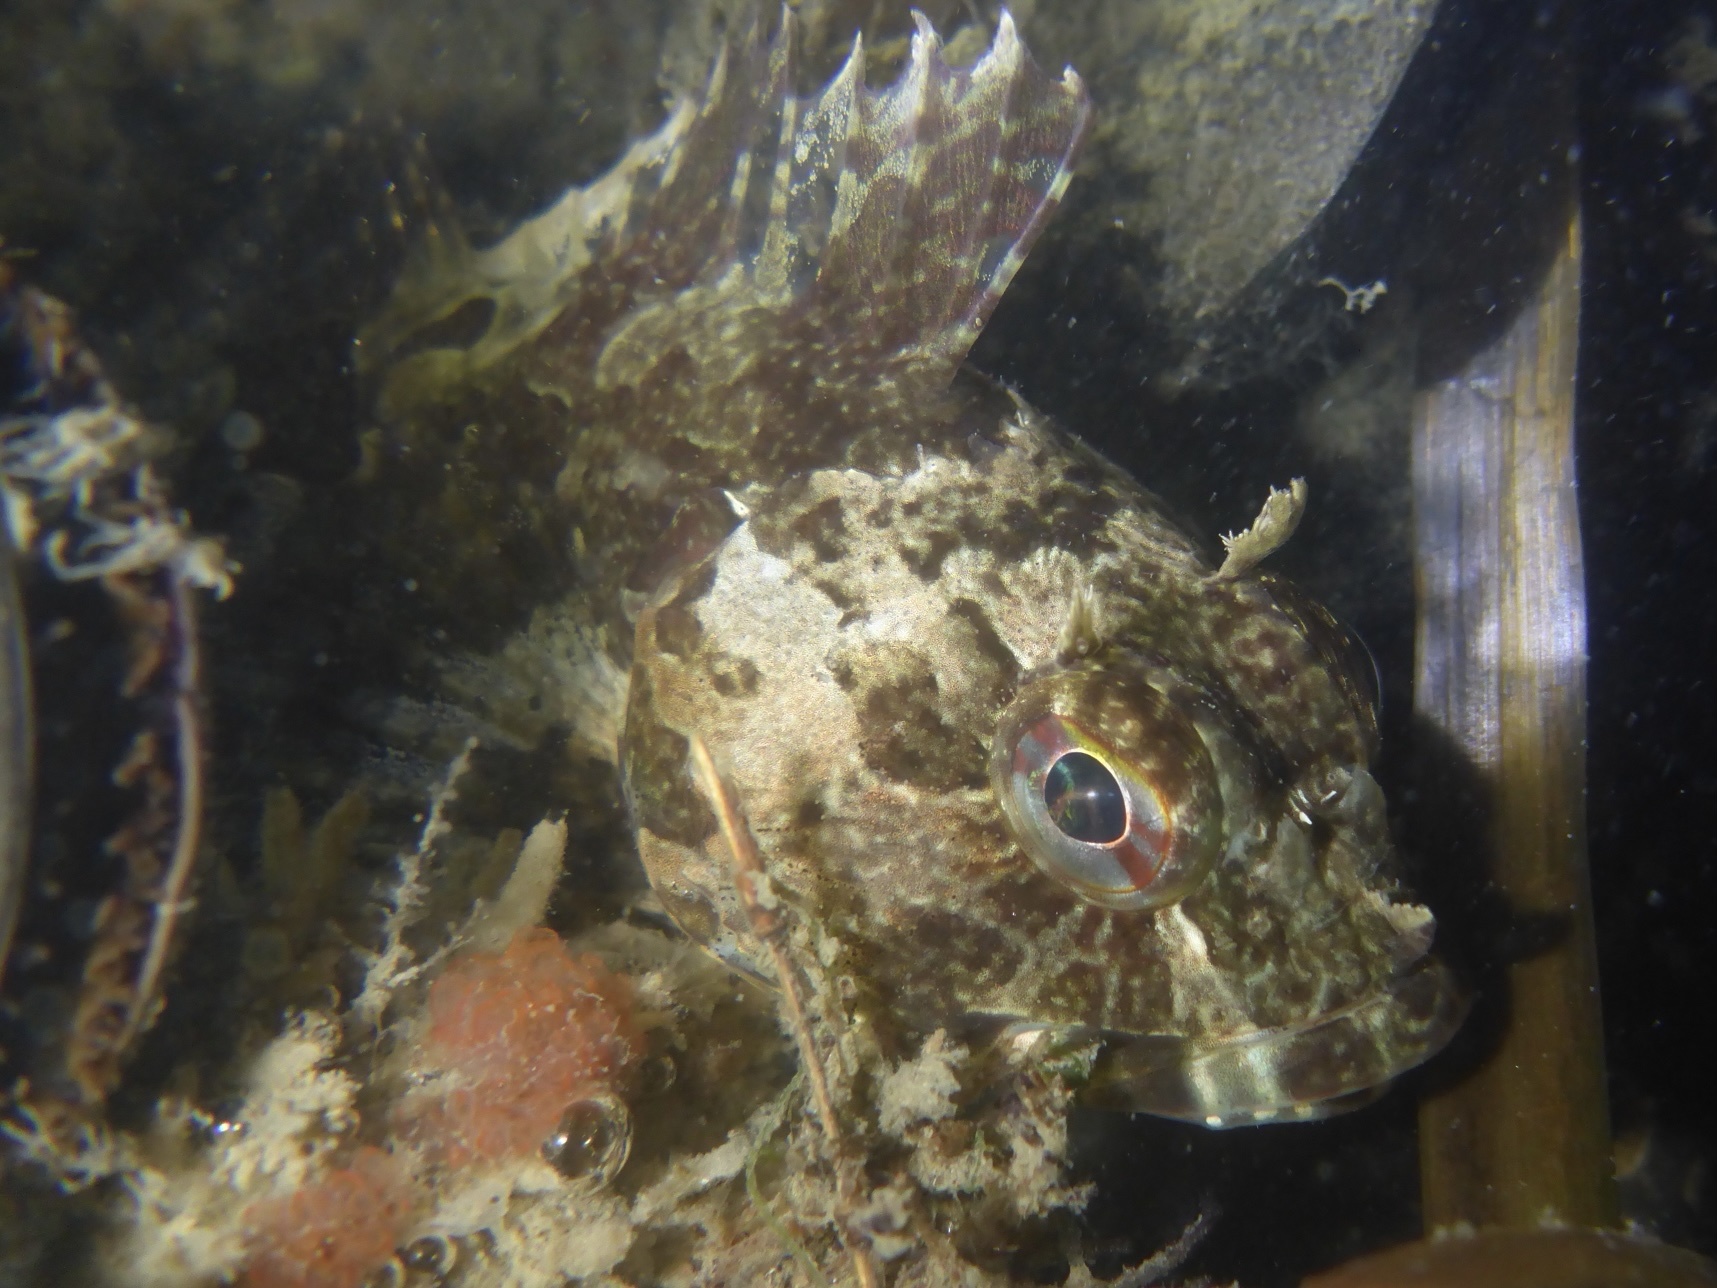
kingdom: Animalia
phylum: Chordata
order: Scorpaeniformes
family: Cottidae
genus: Scorpaenichthys
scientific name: Scorpaenichthys marmoratus
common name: Cabezon
